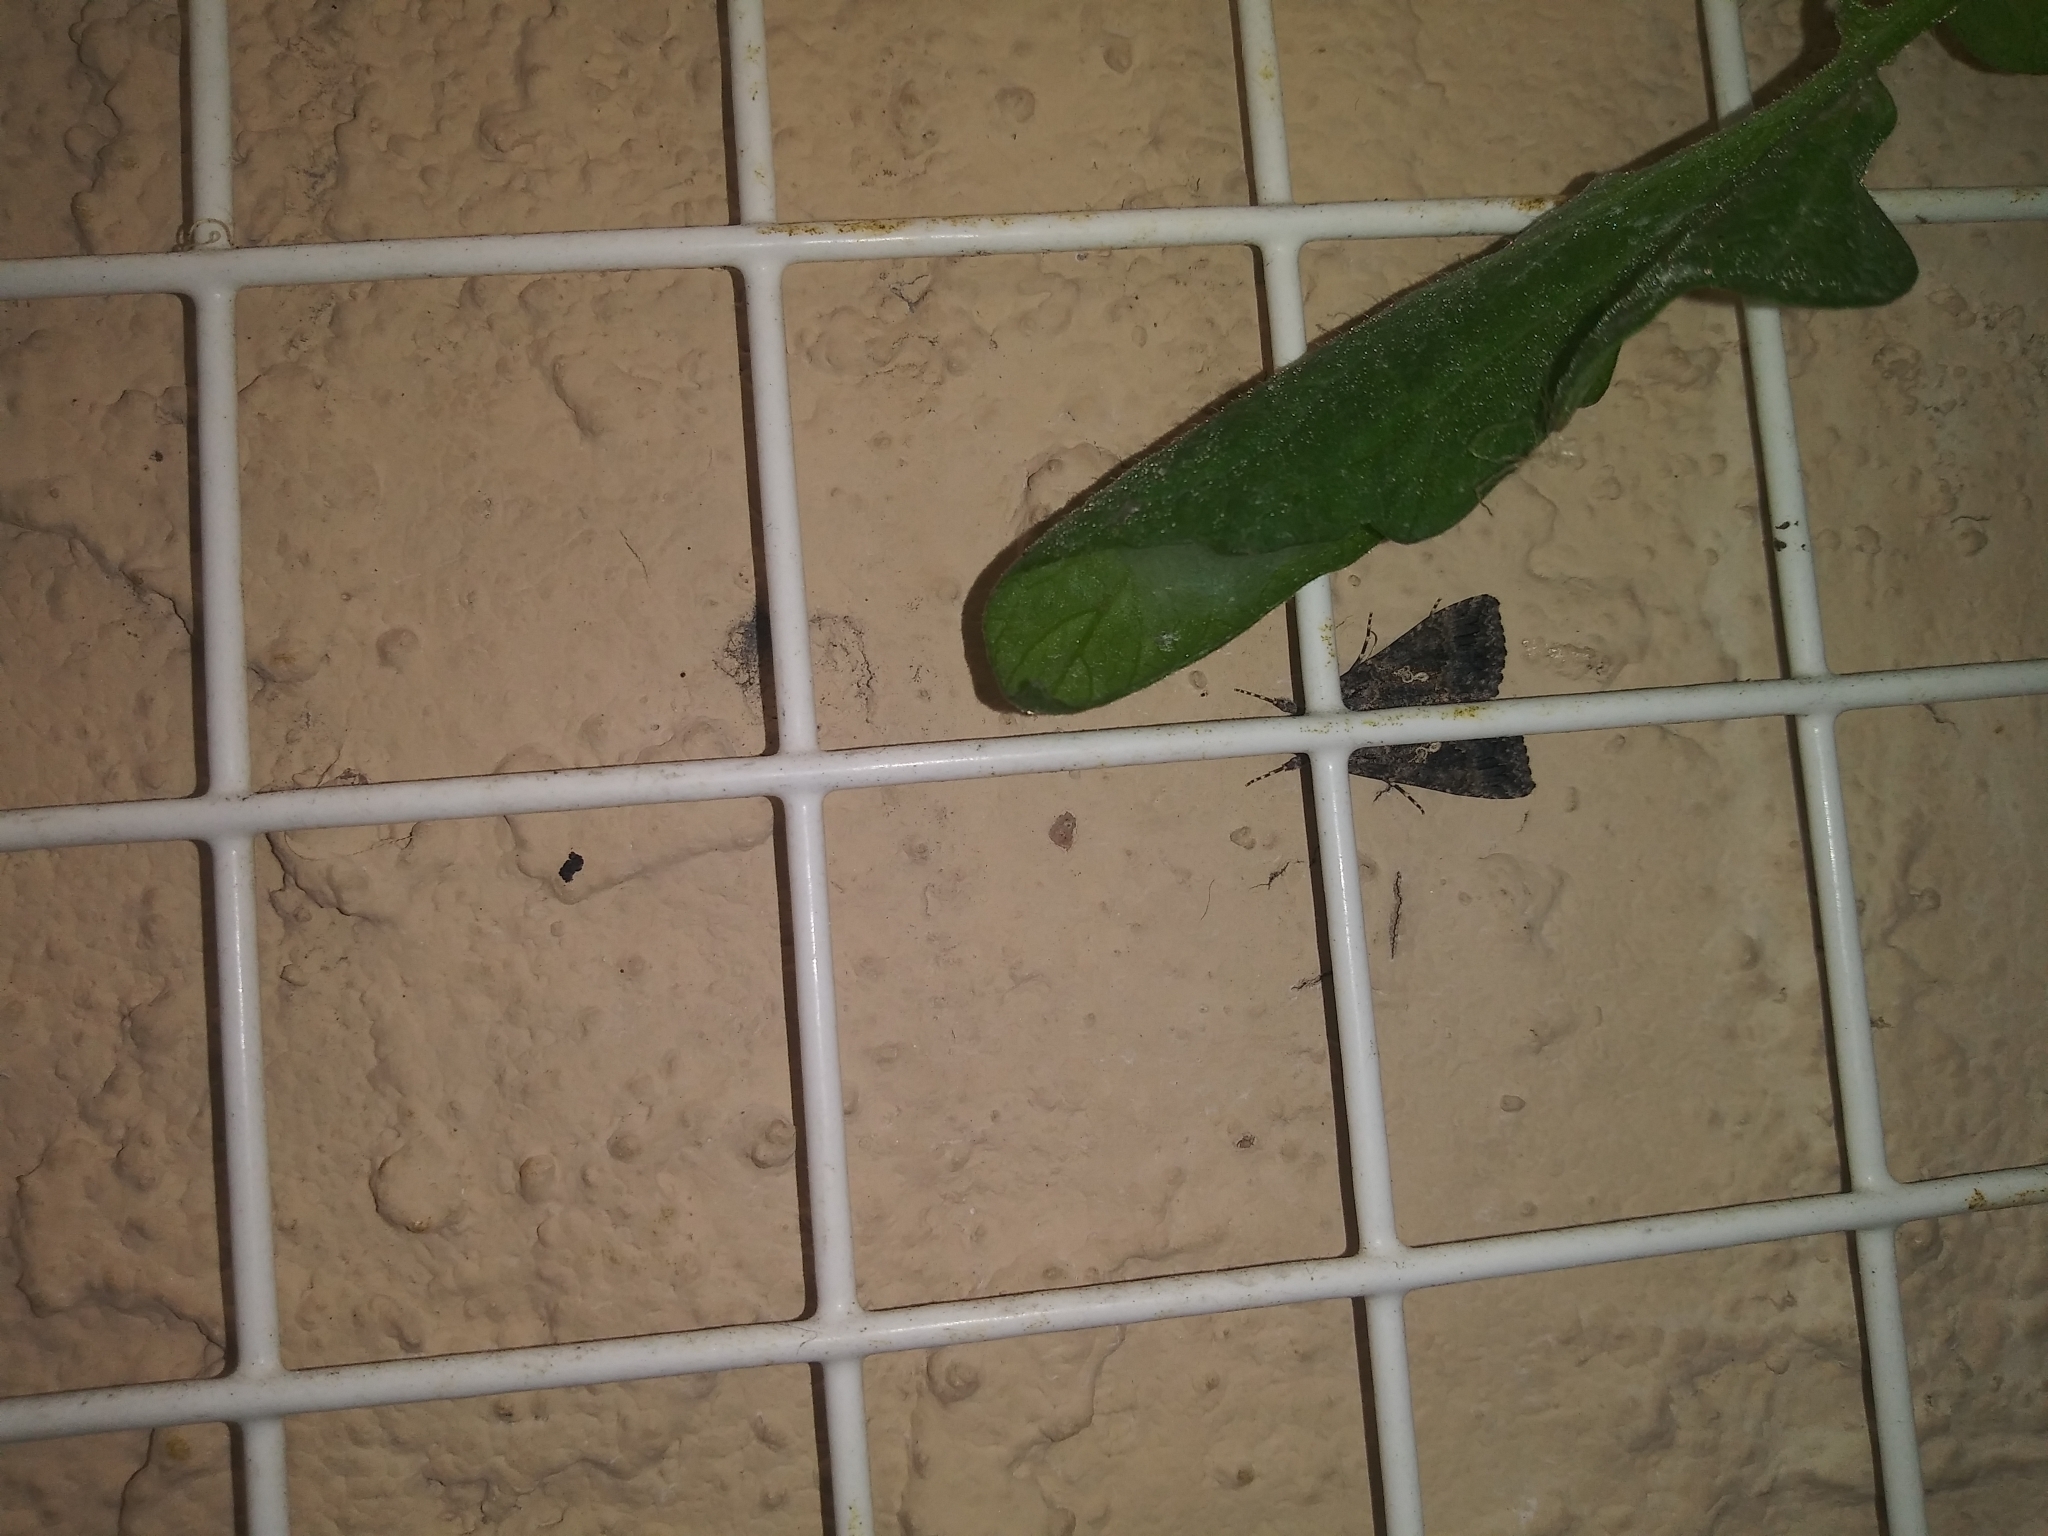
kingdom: Animalia
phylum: Arthropoda
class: Insecta
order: Lepidoptera
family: Noctuidae
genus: Trichoplusia
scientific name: Trichoplusia ni
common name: Ni moth
